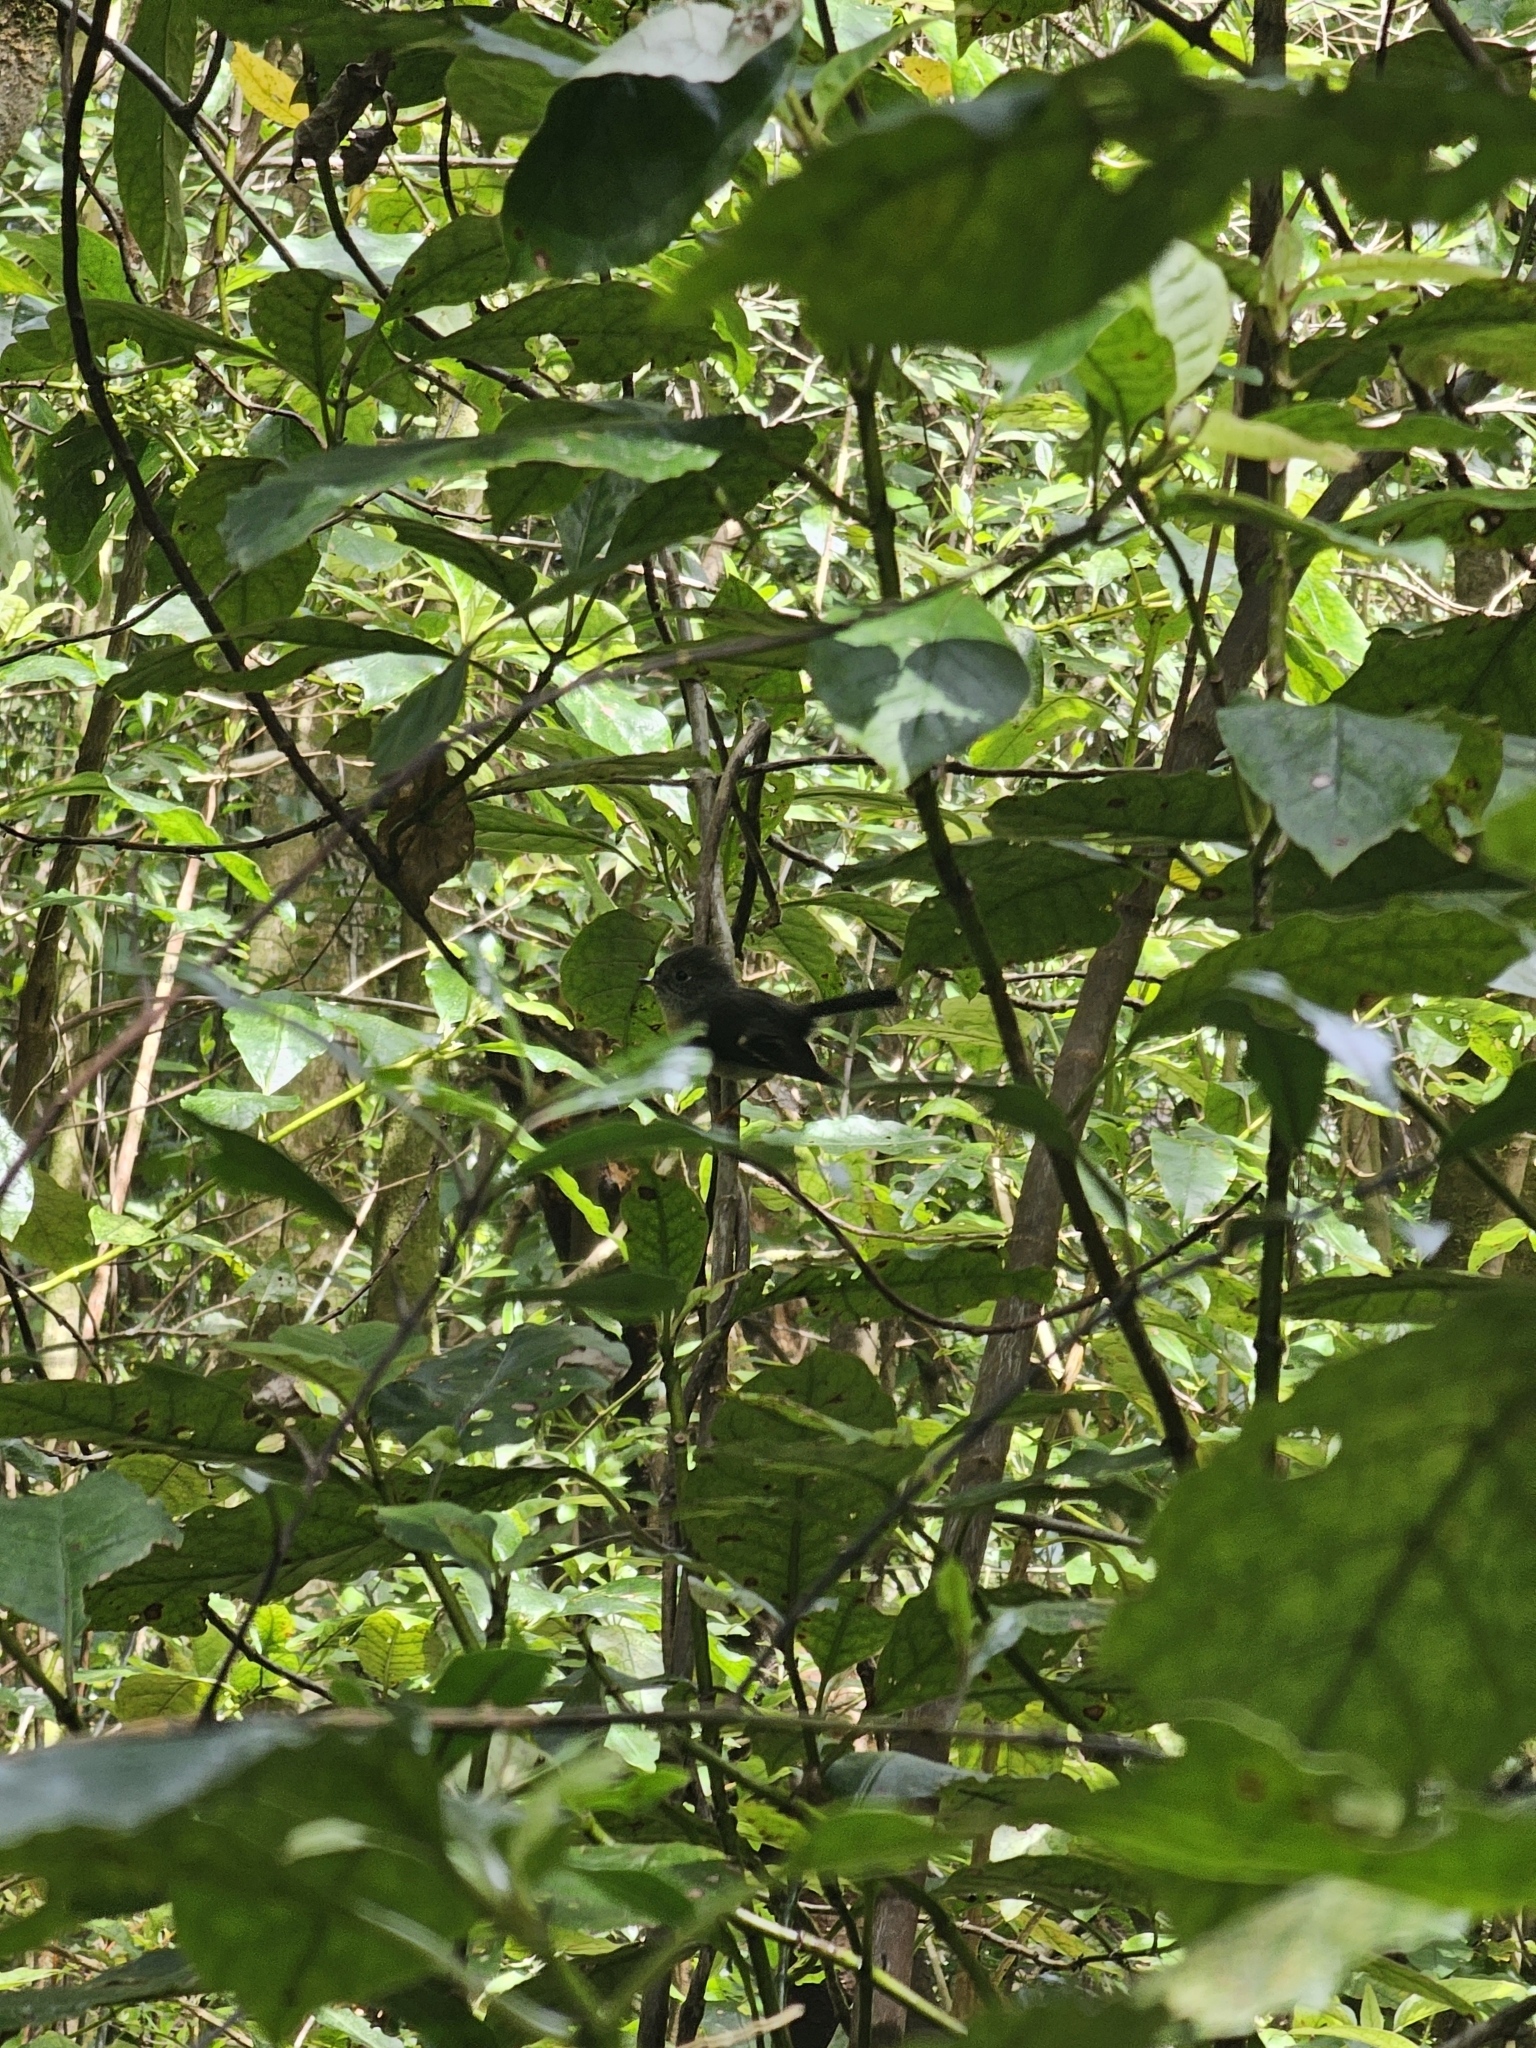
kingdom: Animalia
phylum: Chordata
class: Aves
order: Passeriformes
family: Petroicidae
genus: Petroica
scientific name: Petroica macrocephala
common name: Tomtit
